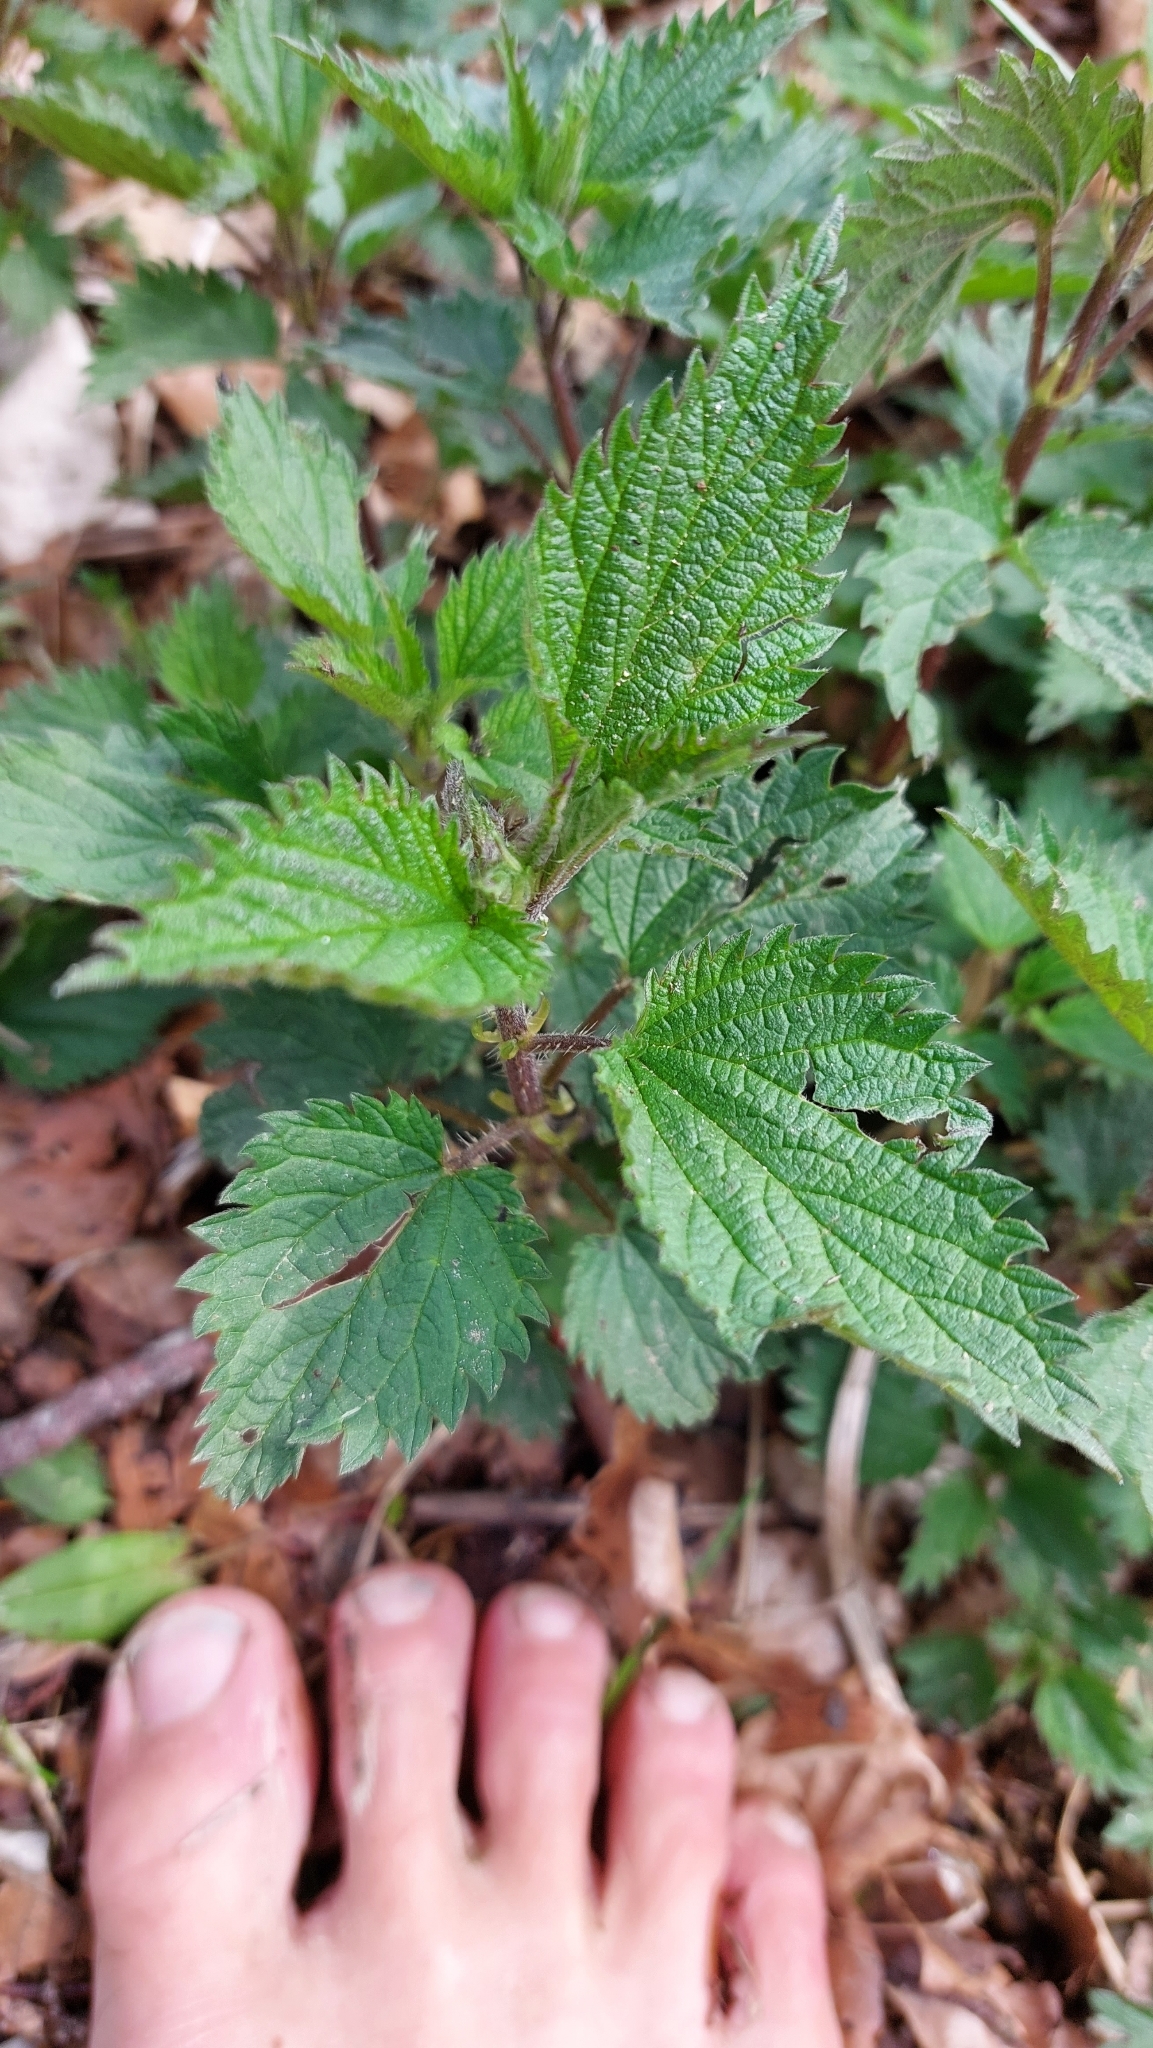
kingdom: Plantae
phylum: Tracheophyta
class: Magnoliopsida
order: Rosales
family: Urticaceae
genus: Urtica
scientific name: Urtica dioica
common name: Common nettle
